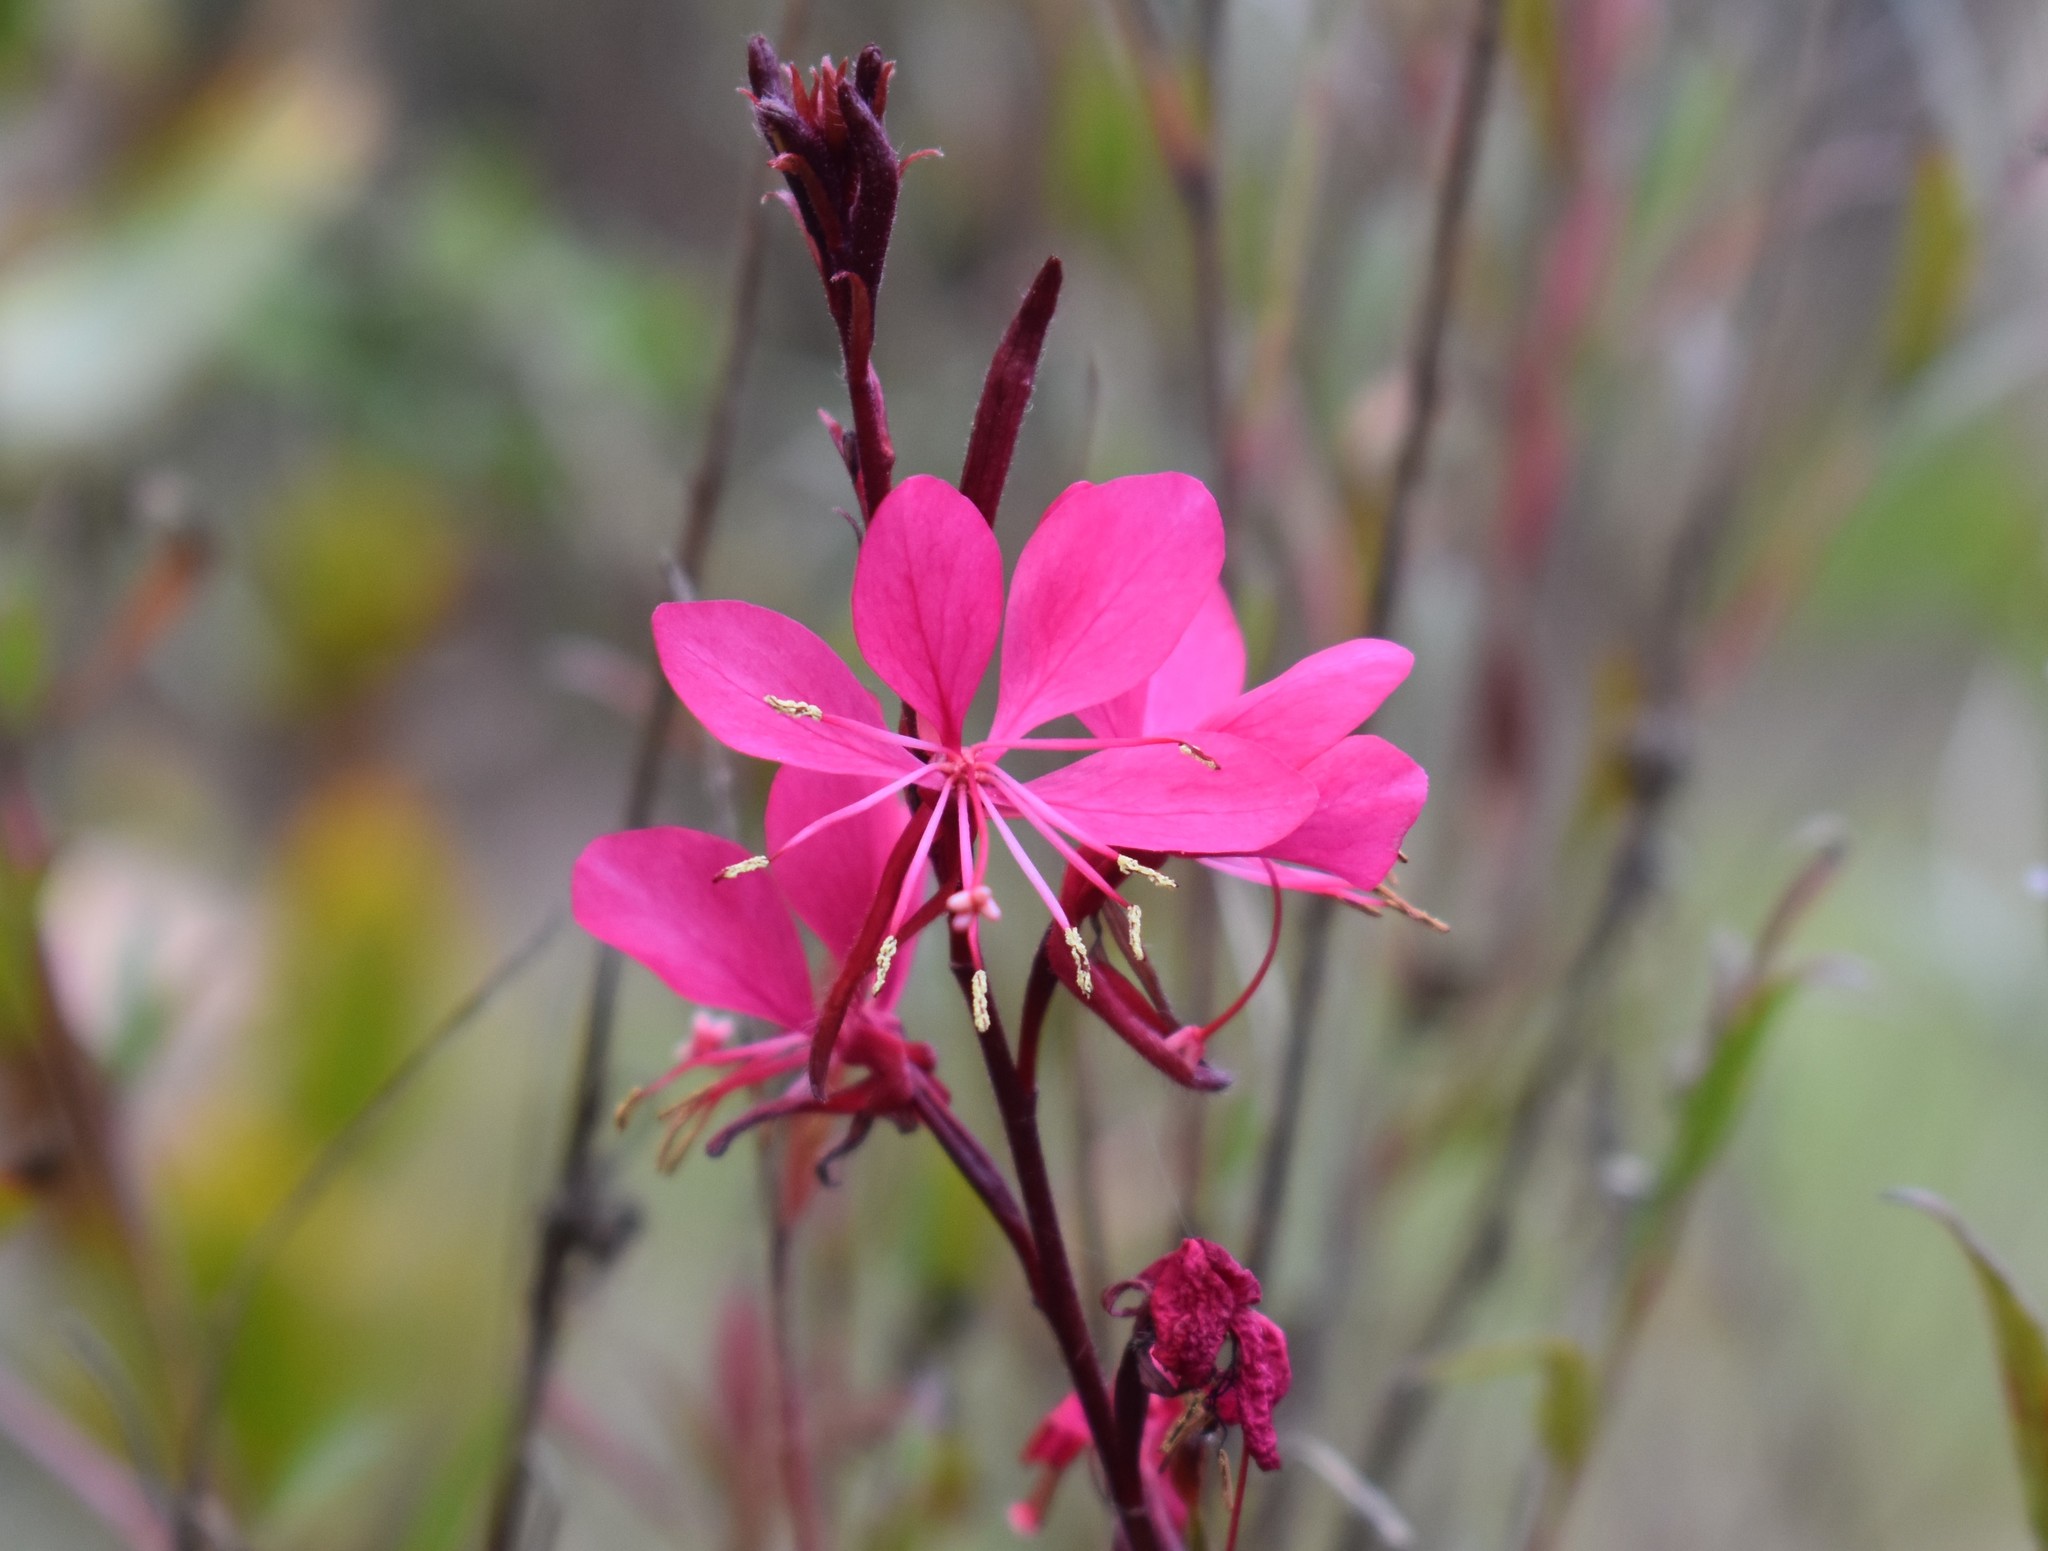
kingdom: Plantae
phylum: Tracheophyta
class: Magnoliopsida
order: Myrtales
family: Onagraceae
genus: Oenothera
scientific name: Oenothera lindheimeri
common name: Lindheimer's beeblossom
